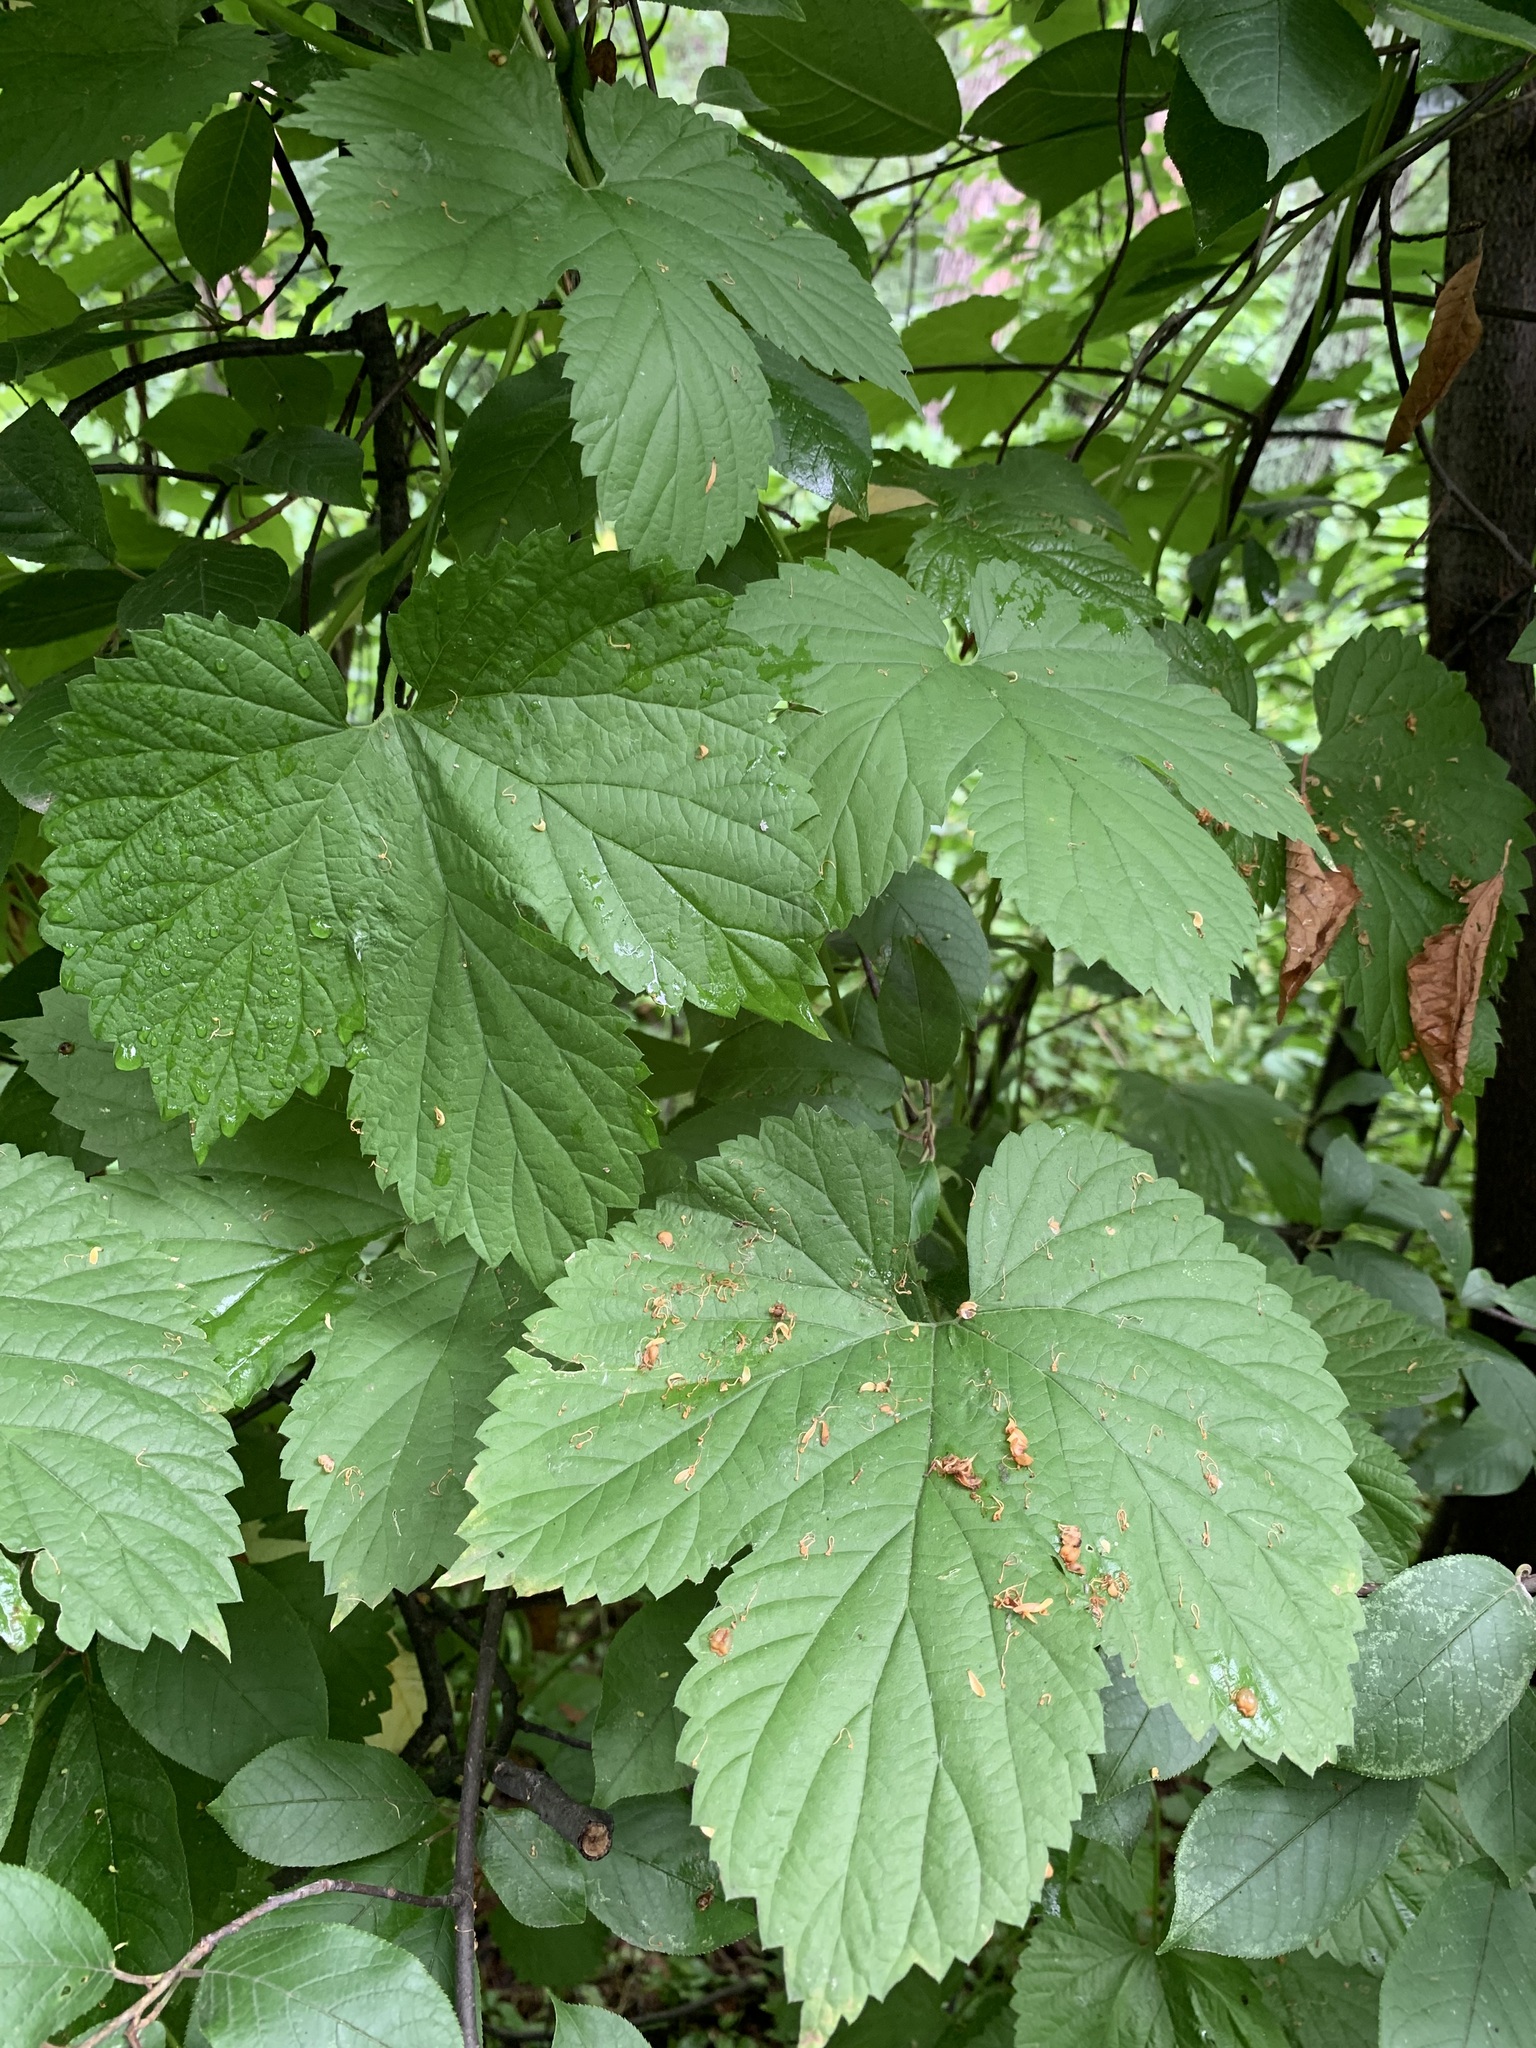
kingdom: Plantae
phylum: Tracheophyta
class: Magnoliopsida
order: Rosales
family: Cannabaceae
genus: Humulus
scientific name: Humulus lupulus
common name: Hop
